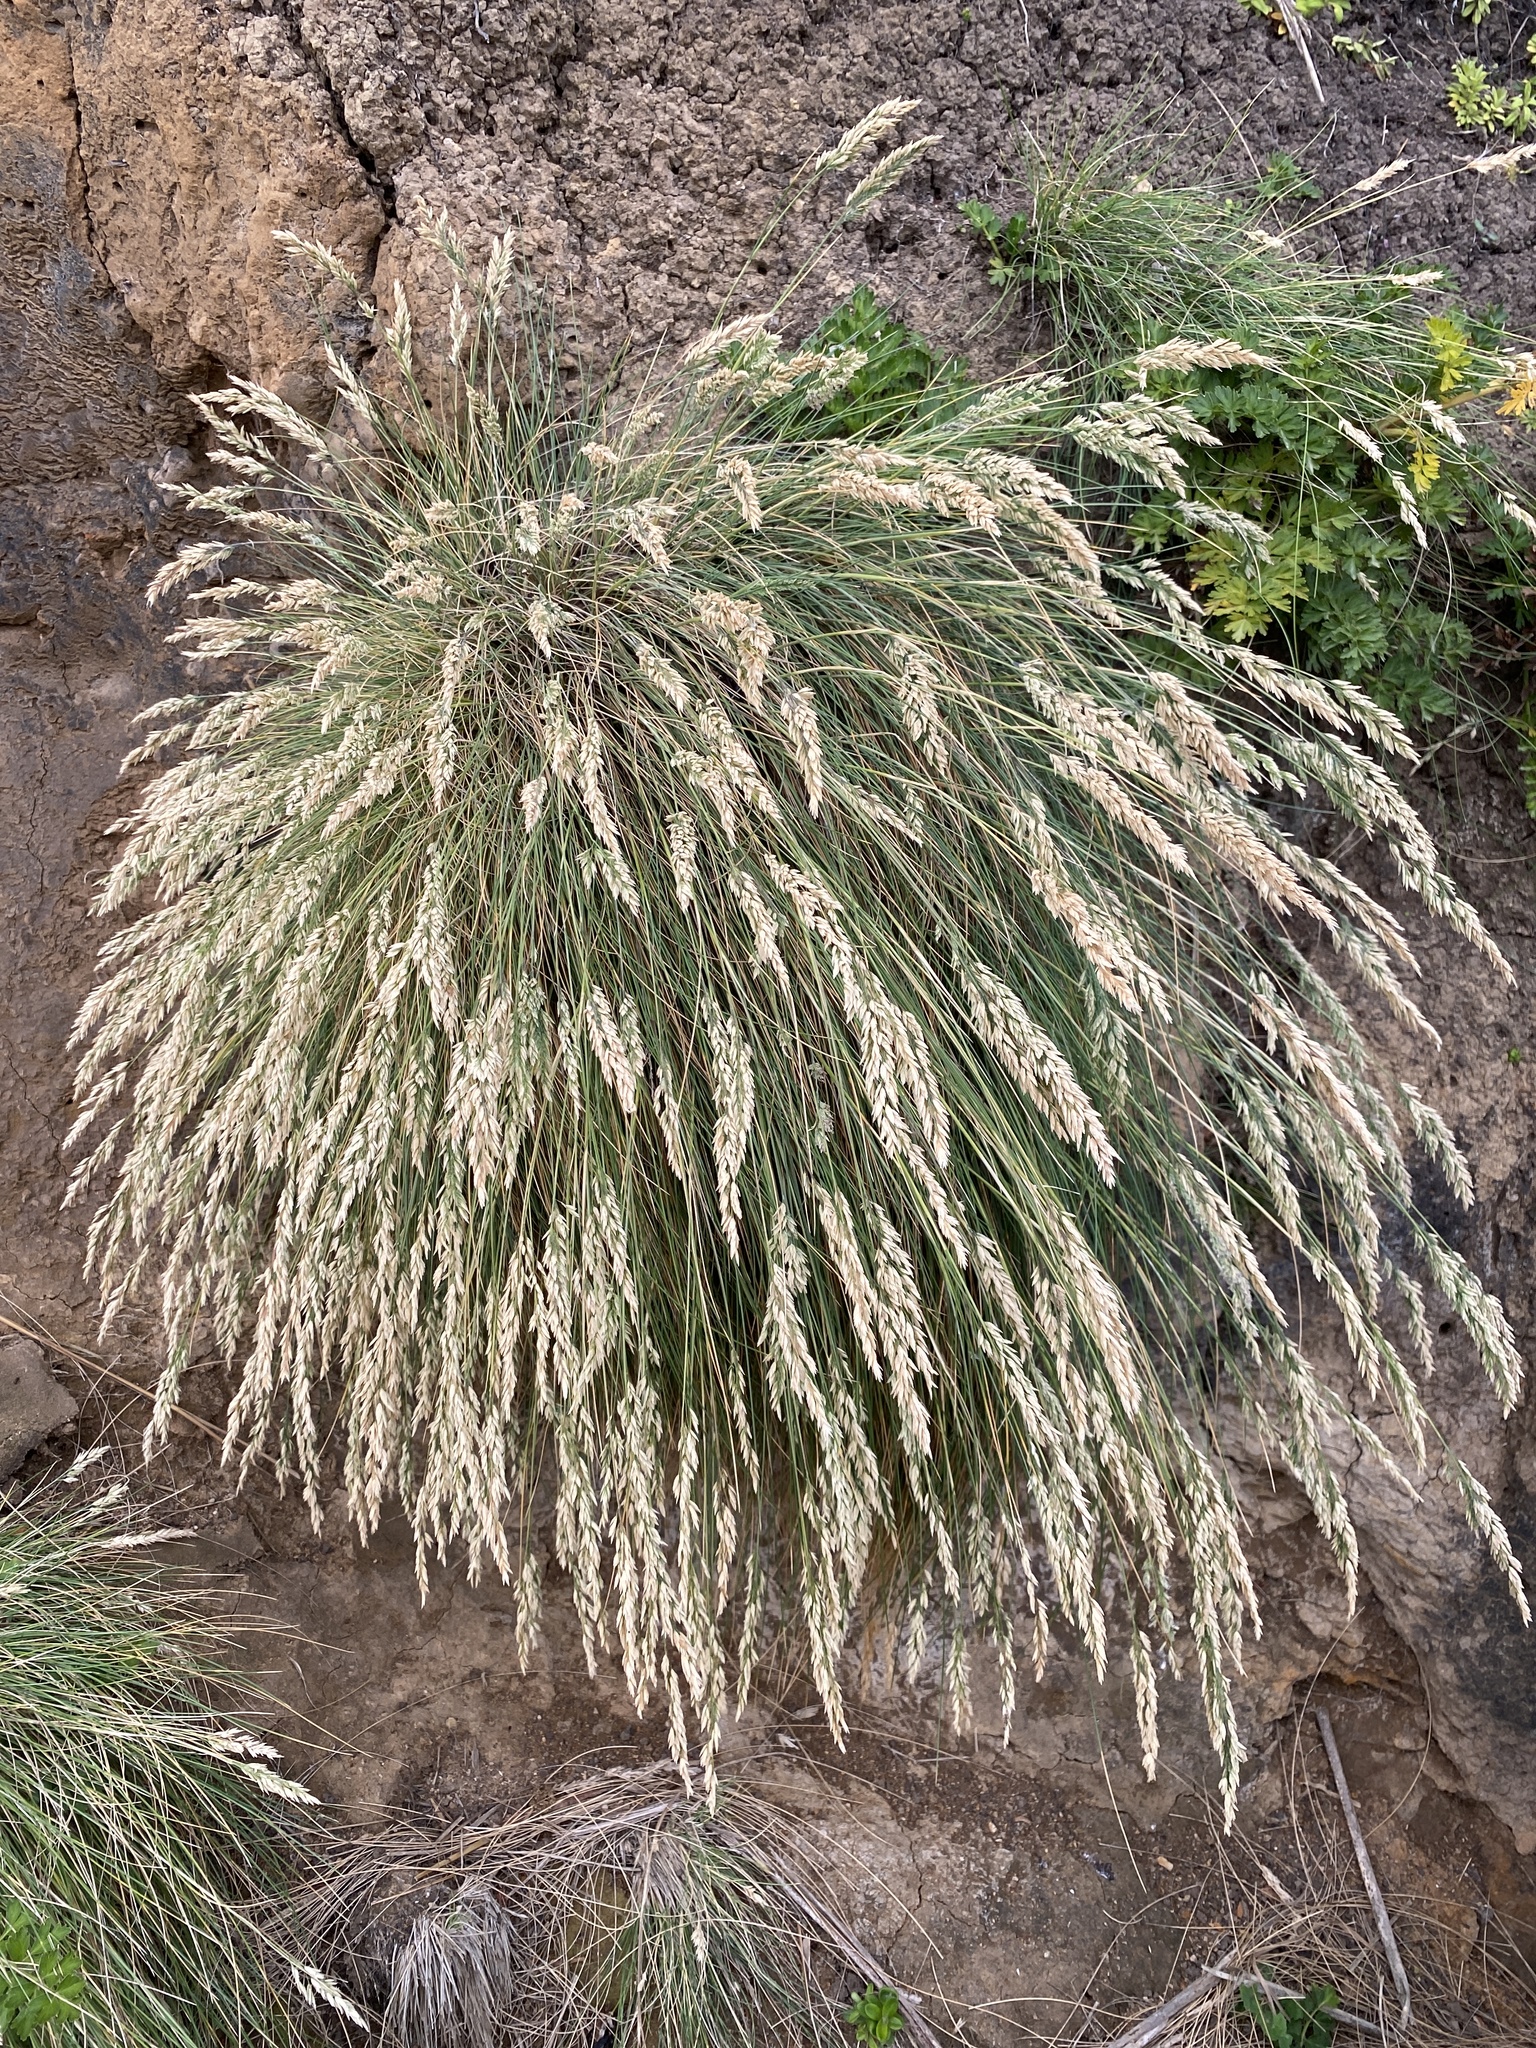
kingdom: Plantae
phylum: Tracheophyta
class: Liliopsida
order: Poales
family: Poaceae
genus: Poa
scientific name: Poa astonii
